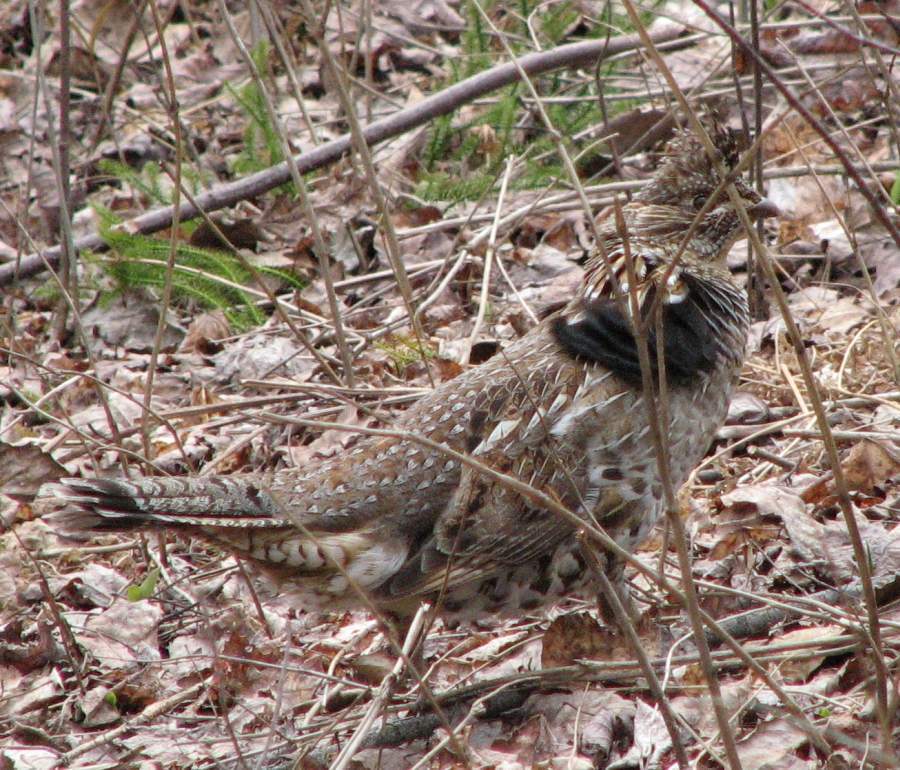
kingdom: Animalia
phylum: Chordata
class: Aves
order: Galliformes
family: Phasianidae
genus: Bonasa
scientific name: Bonasa umbellus
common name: Ruffed grouse
